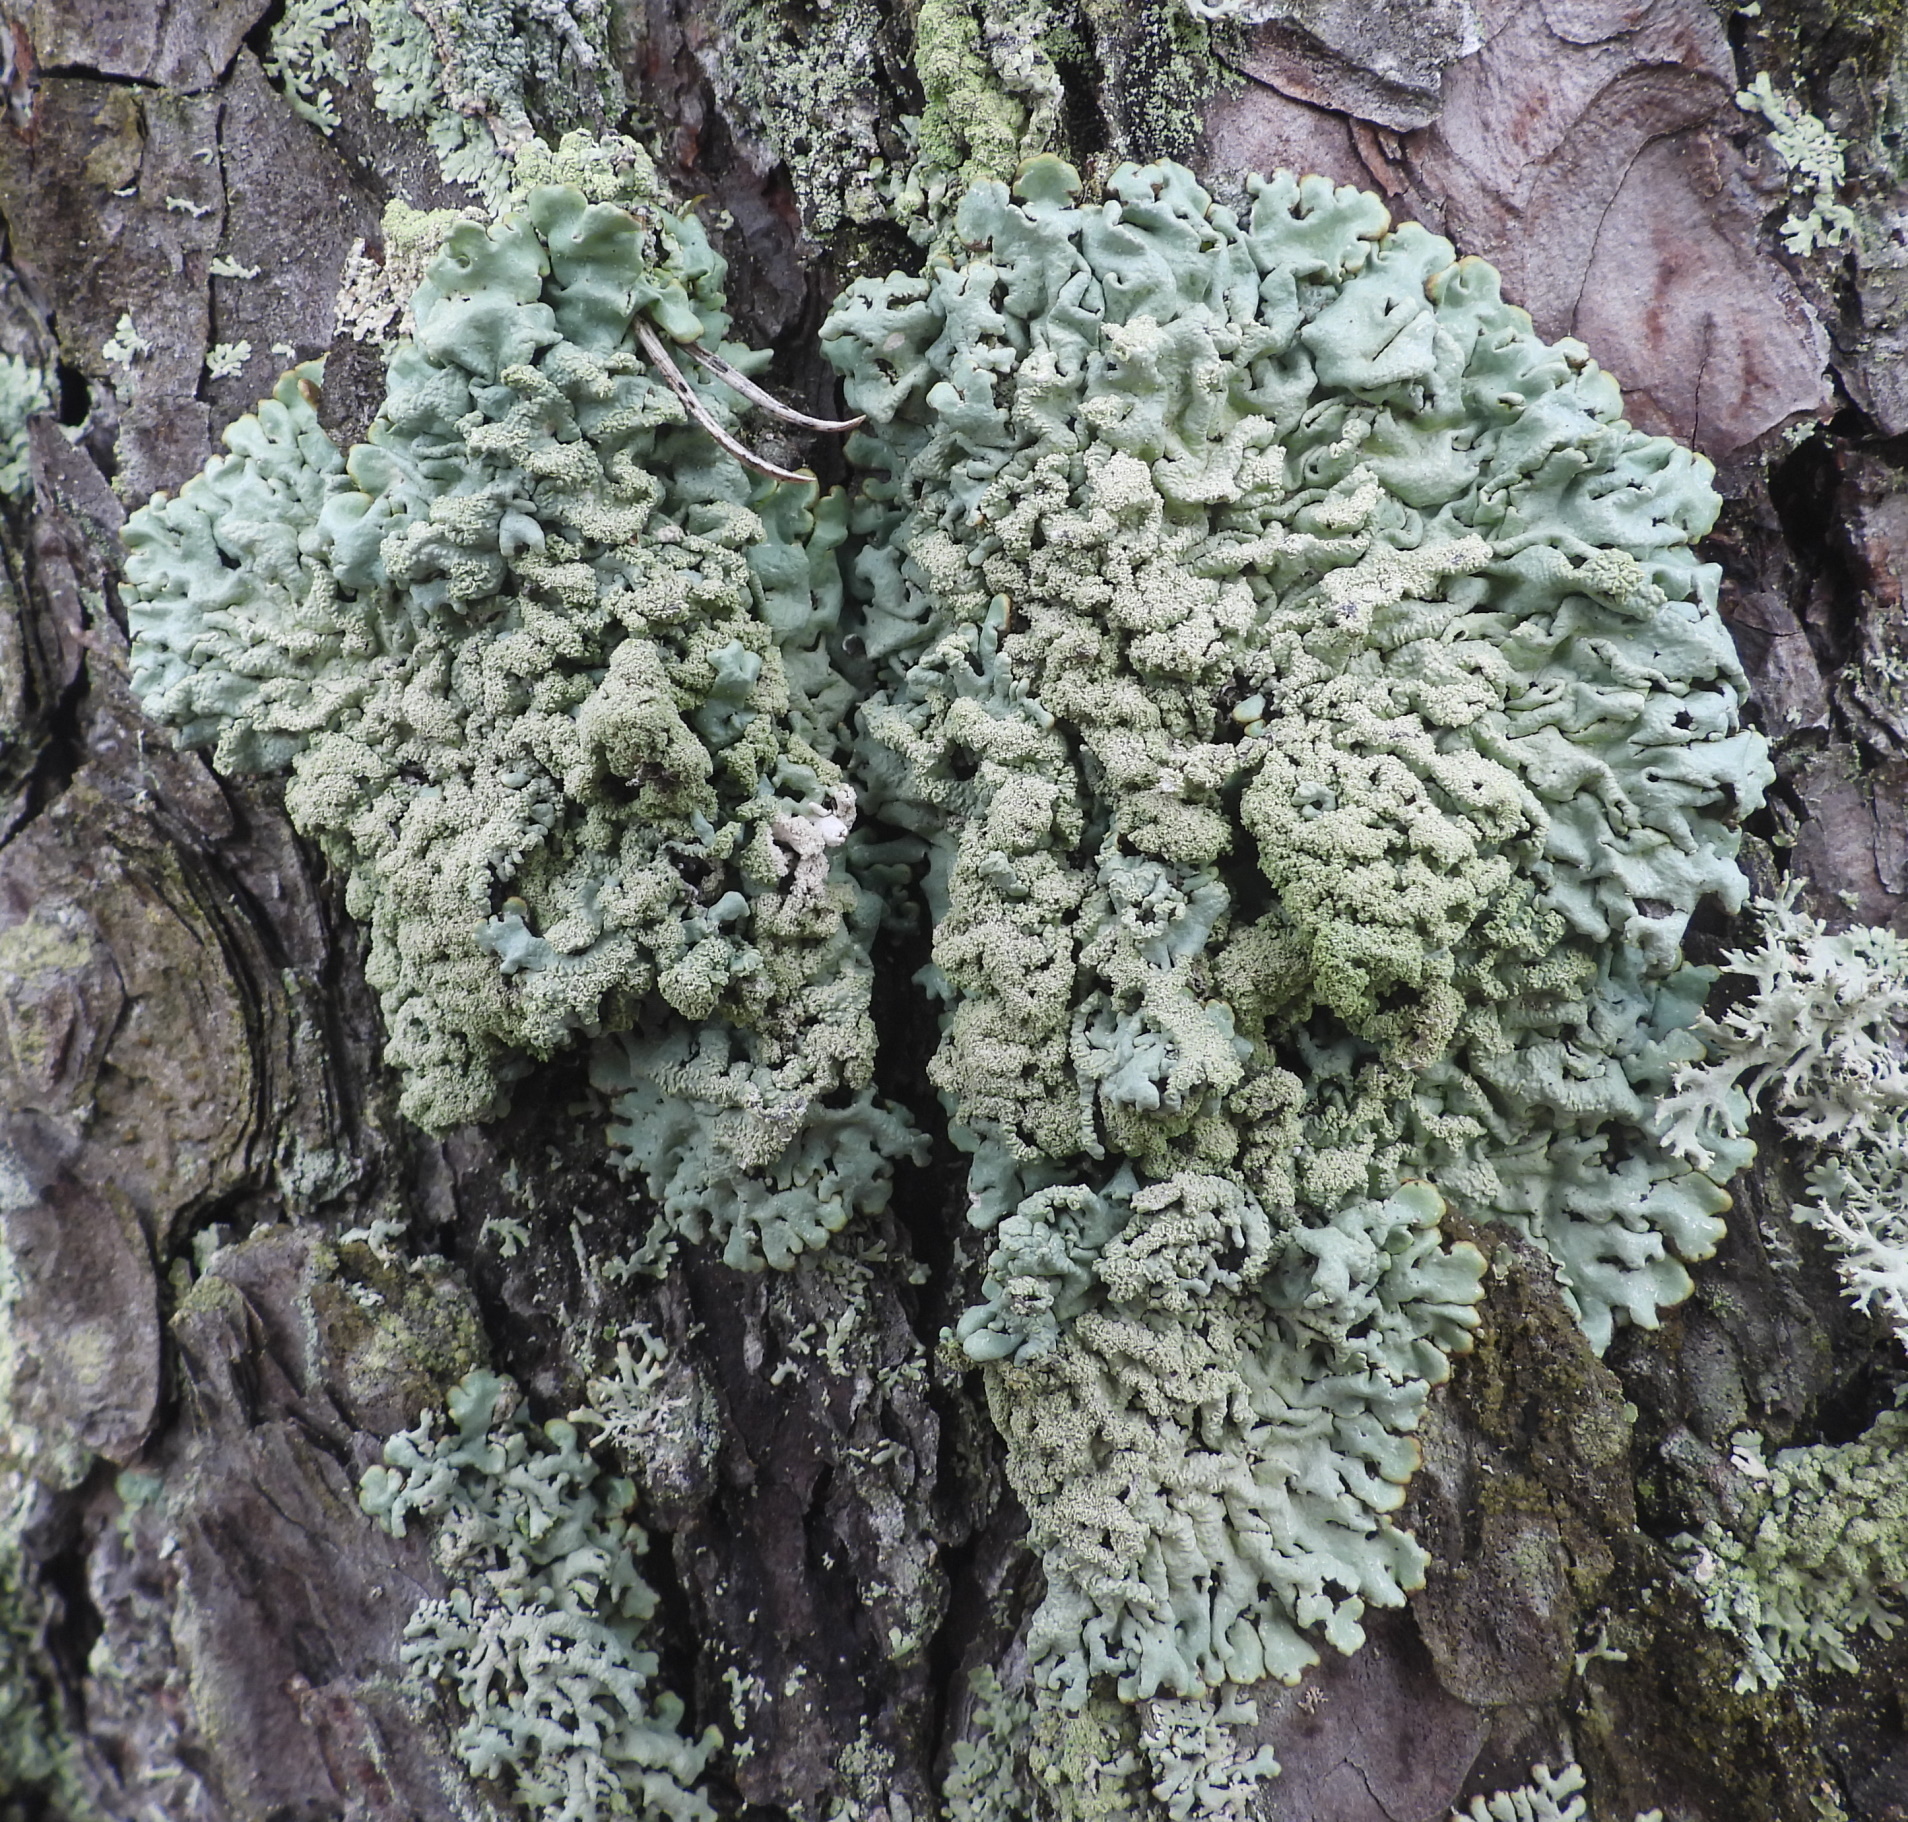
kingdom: Fungi
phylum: Ascomycota
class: Lecanoromycetes
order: Lecanorales
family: Parmeliaceae
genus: Hypogymnia
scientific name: Hypogymnia farinacea
